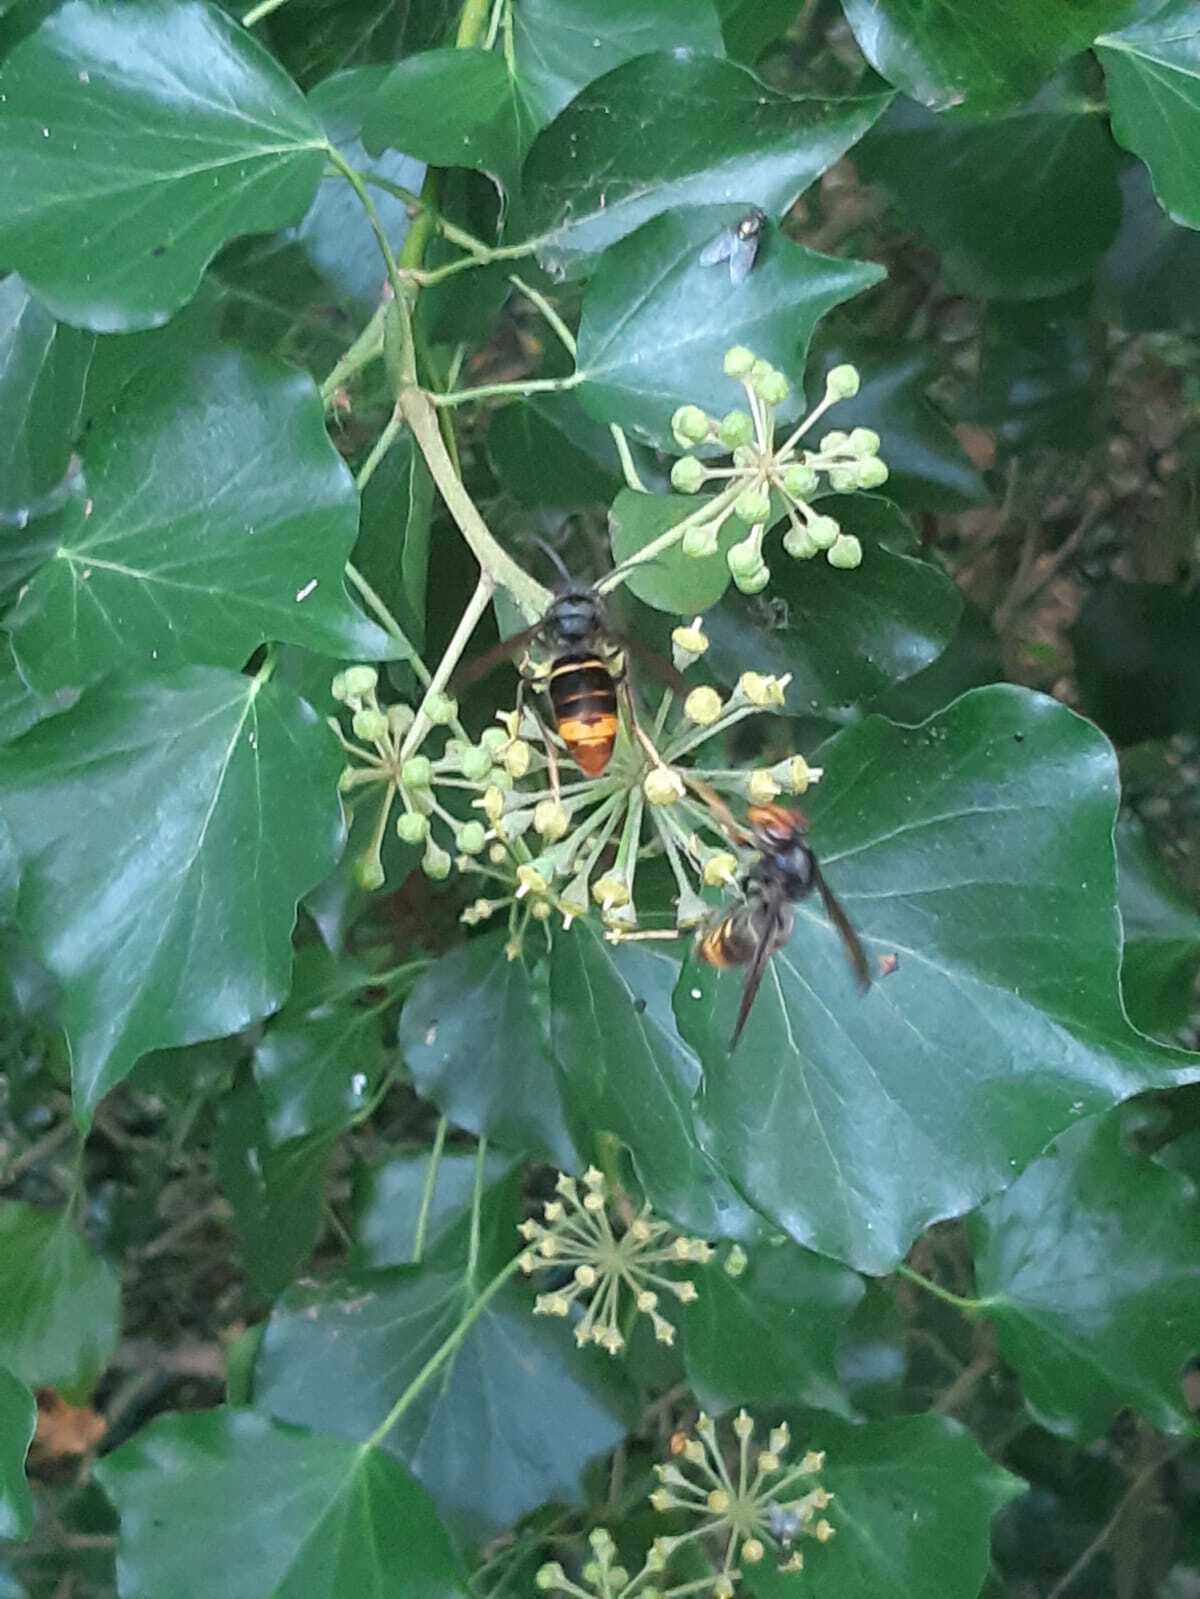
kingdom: Animalia
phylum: Arthropoda
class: Insecta
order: Hymenoptera
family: Vespidae
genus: Vespa
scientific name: Vespa velutina
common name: Asian hornet
